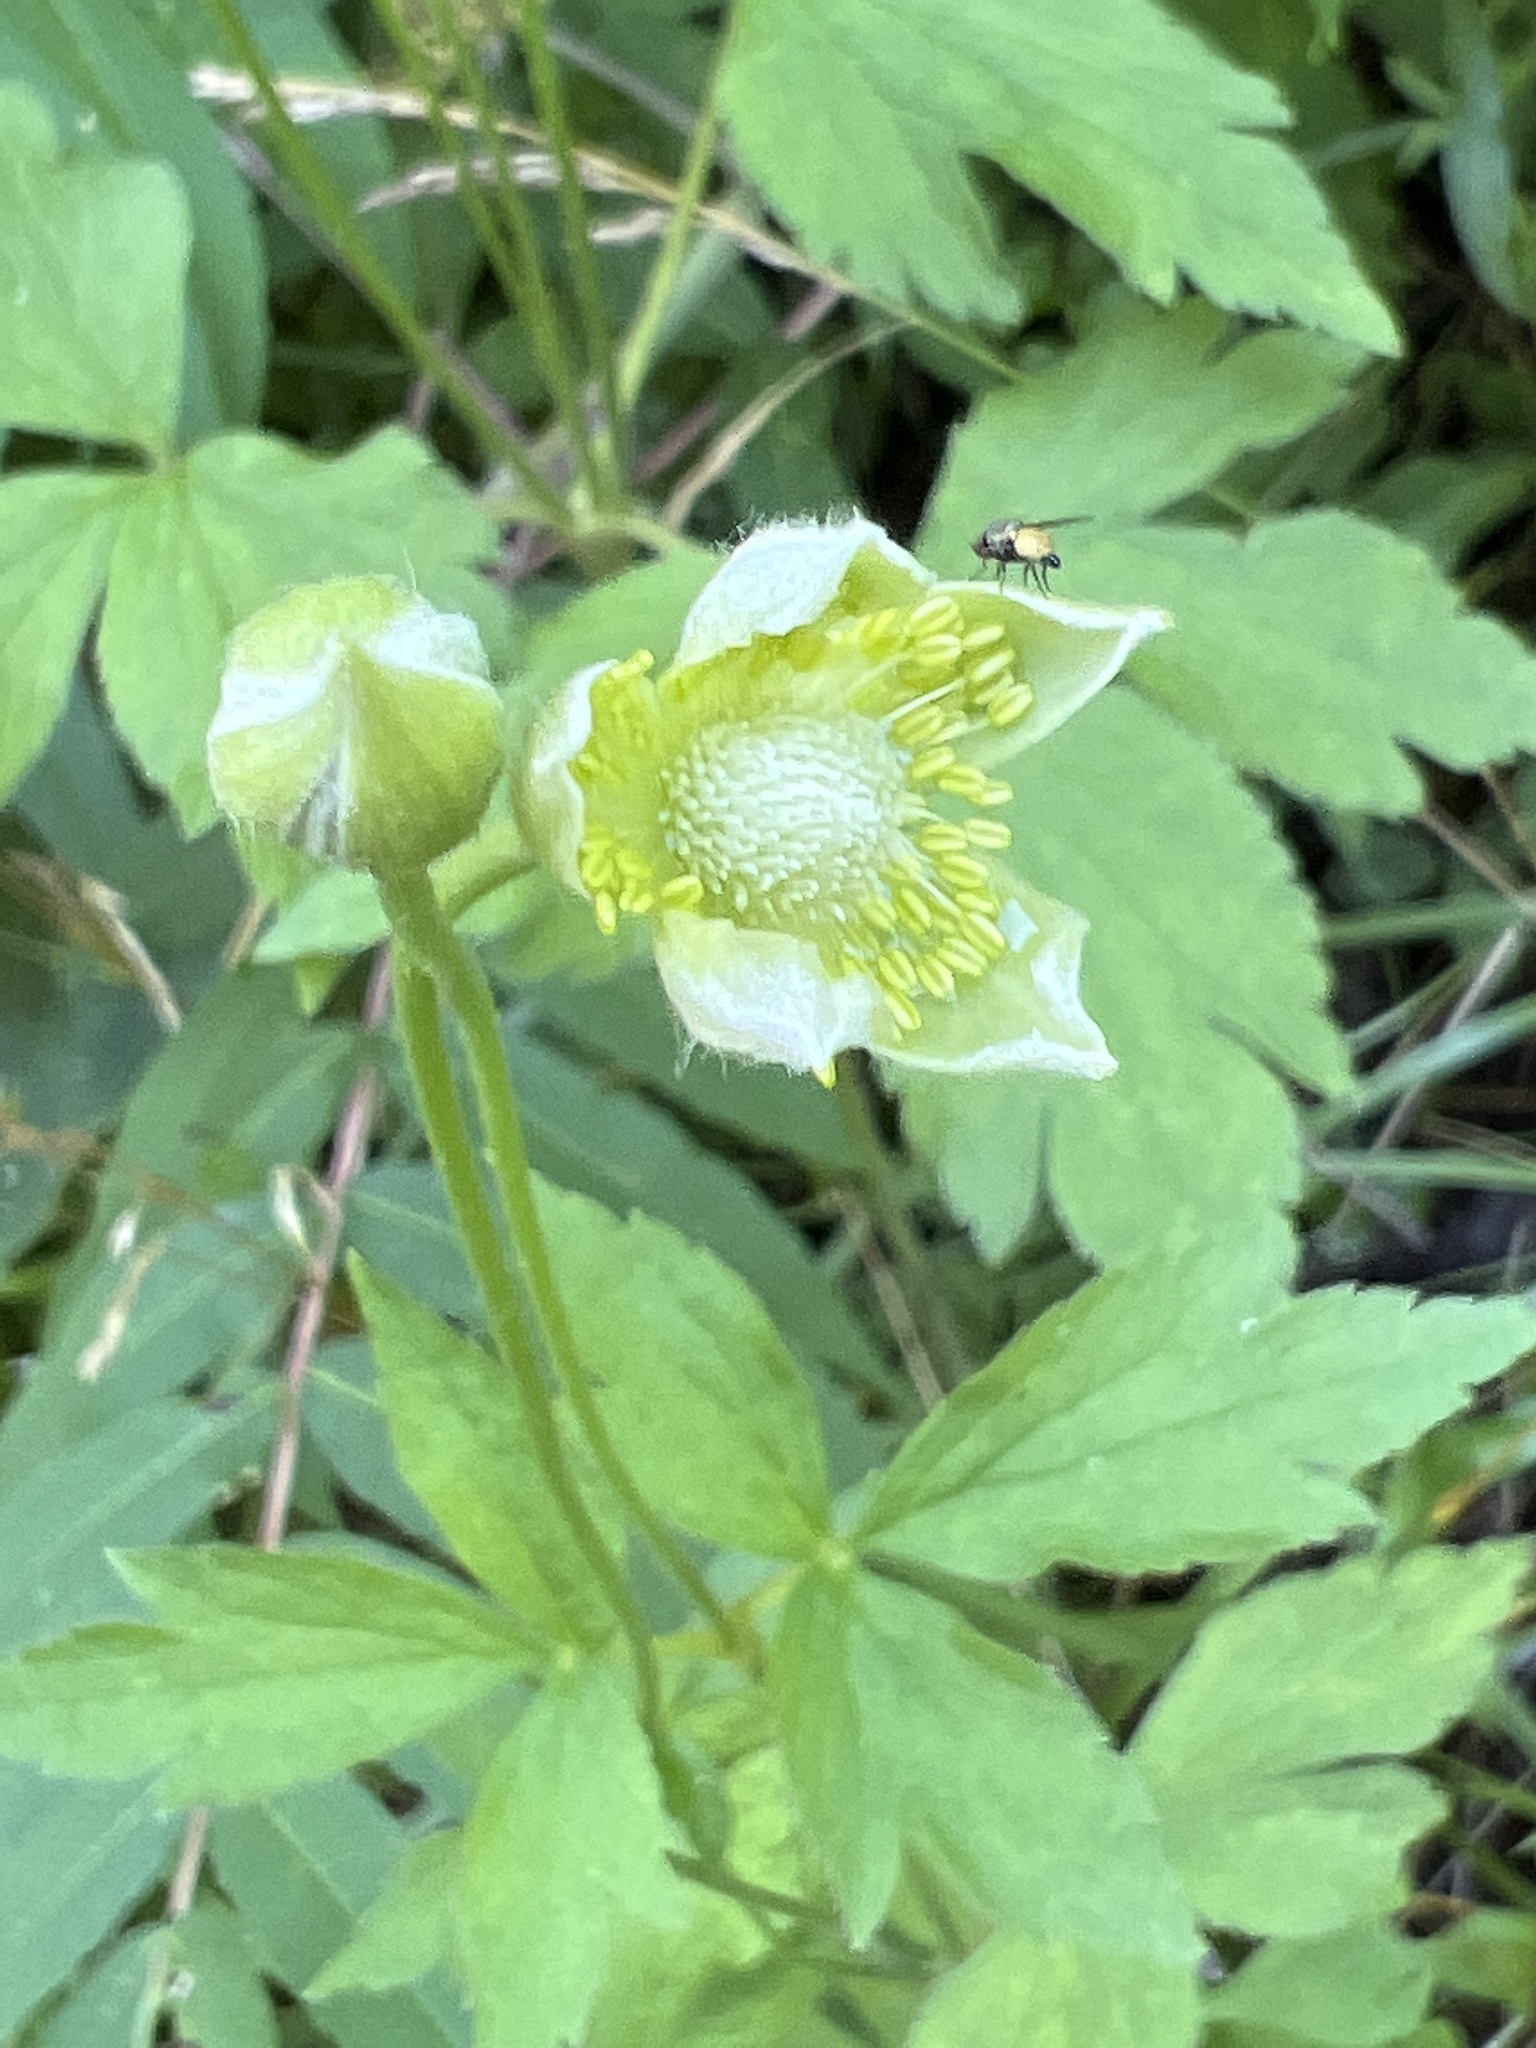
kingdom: Plantae
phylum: Tracheophyta
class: Magnoliopsida
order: Ranunculales
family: Ranunculaceae
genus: Anemone
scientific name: Anemone virginiana
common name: Tall anemone
